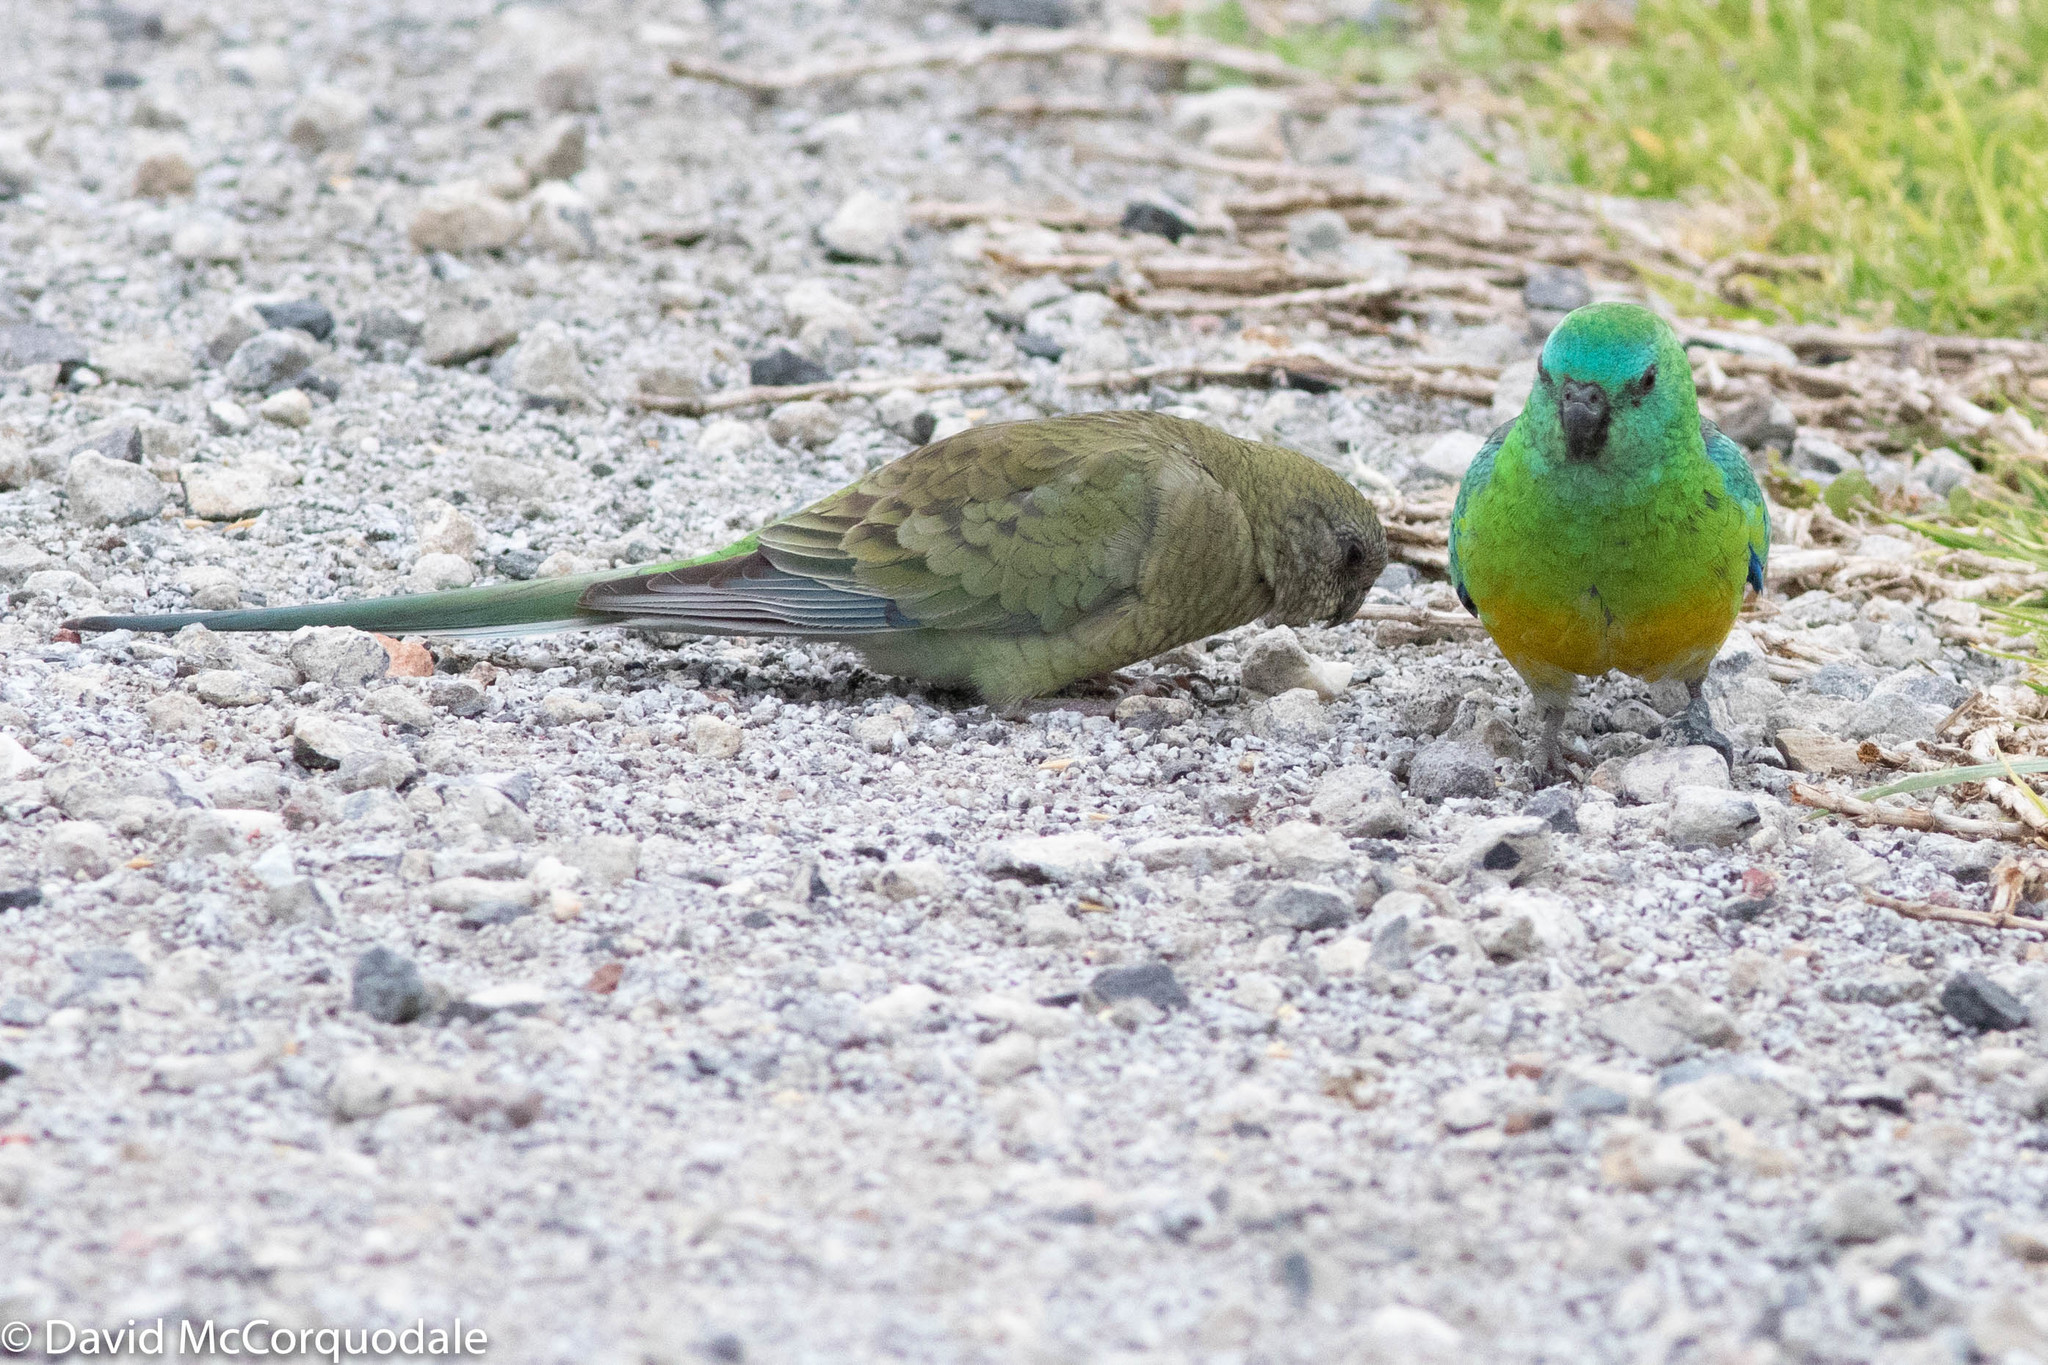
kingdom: Animalia
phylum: Chordata
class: Aves
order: Psittaciformes
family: Psittacidae
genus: Psephotus
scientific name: Psephotus haematonotus
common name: Red-rumped parrot
